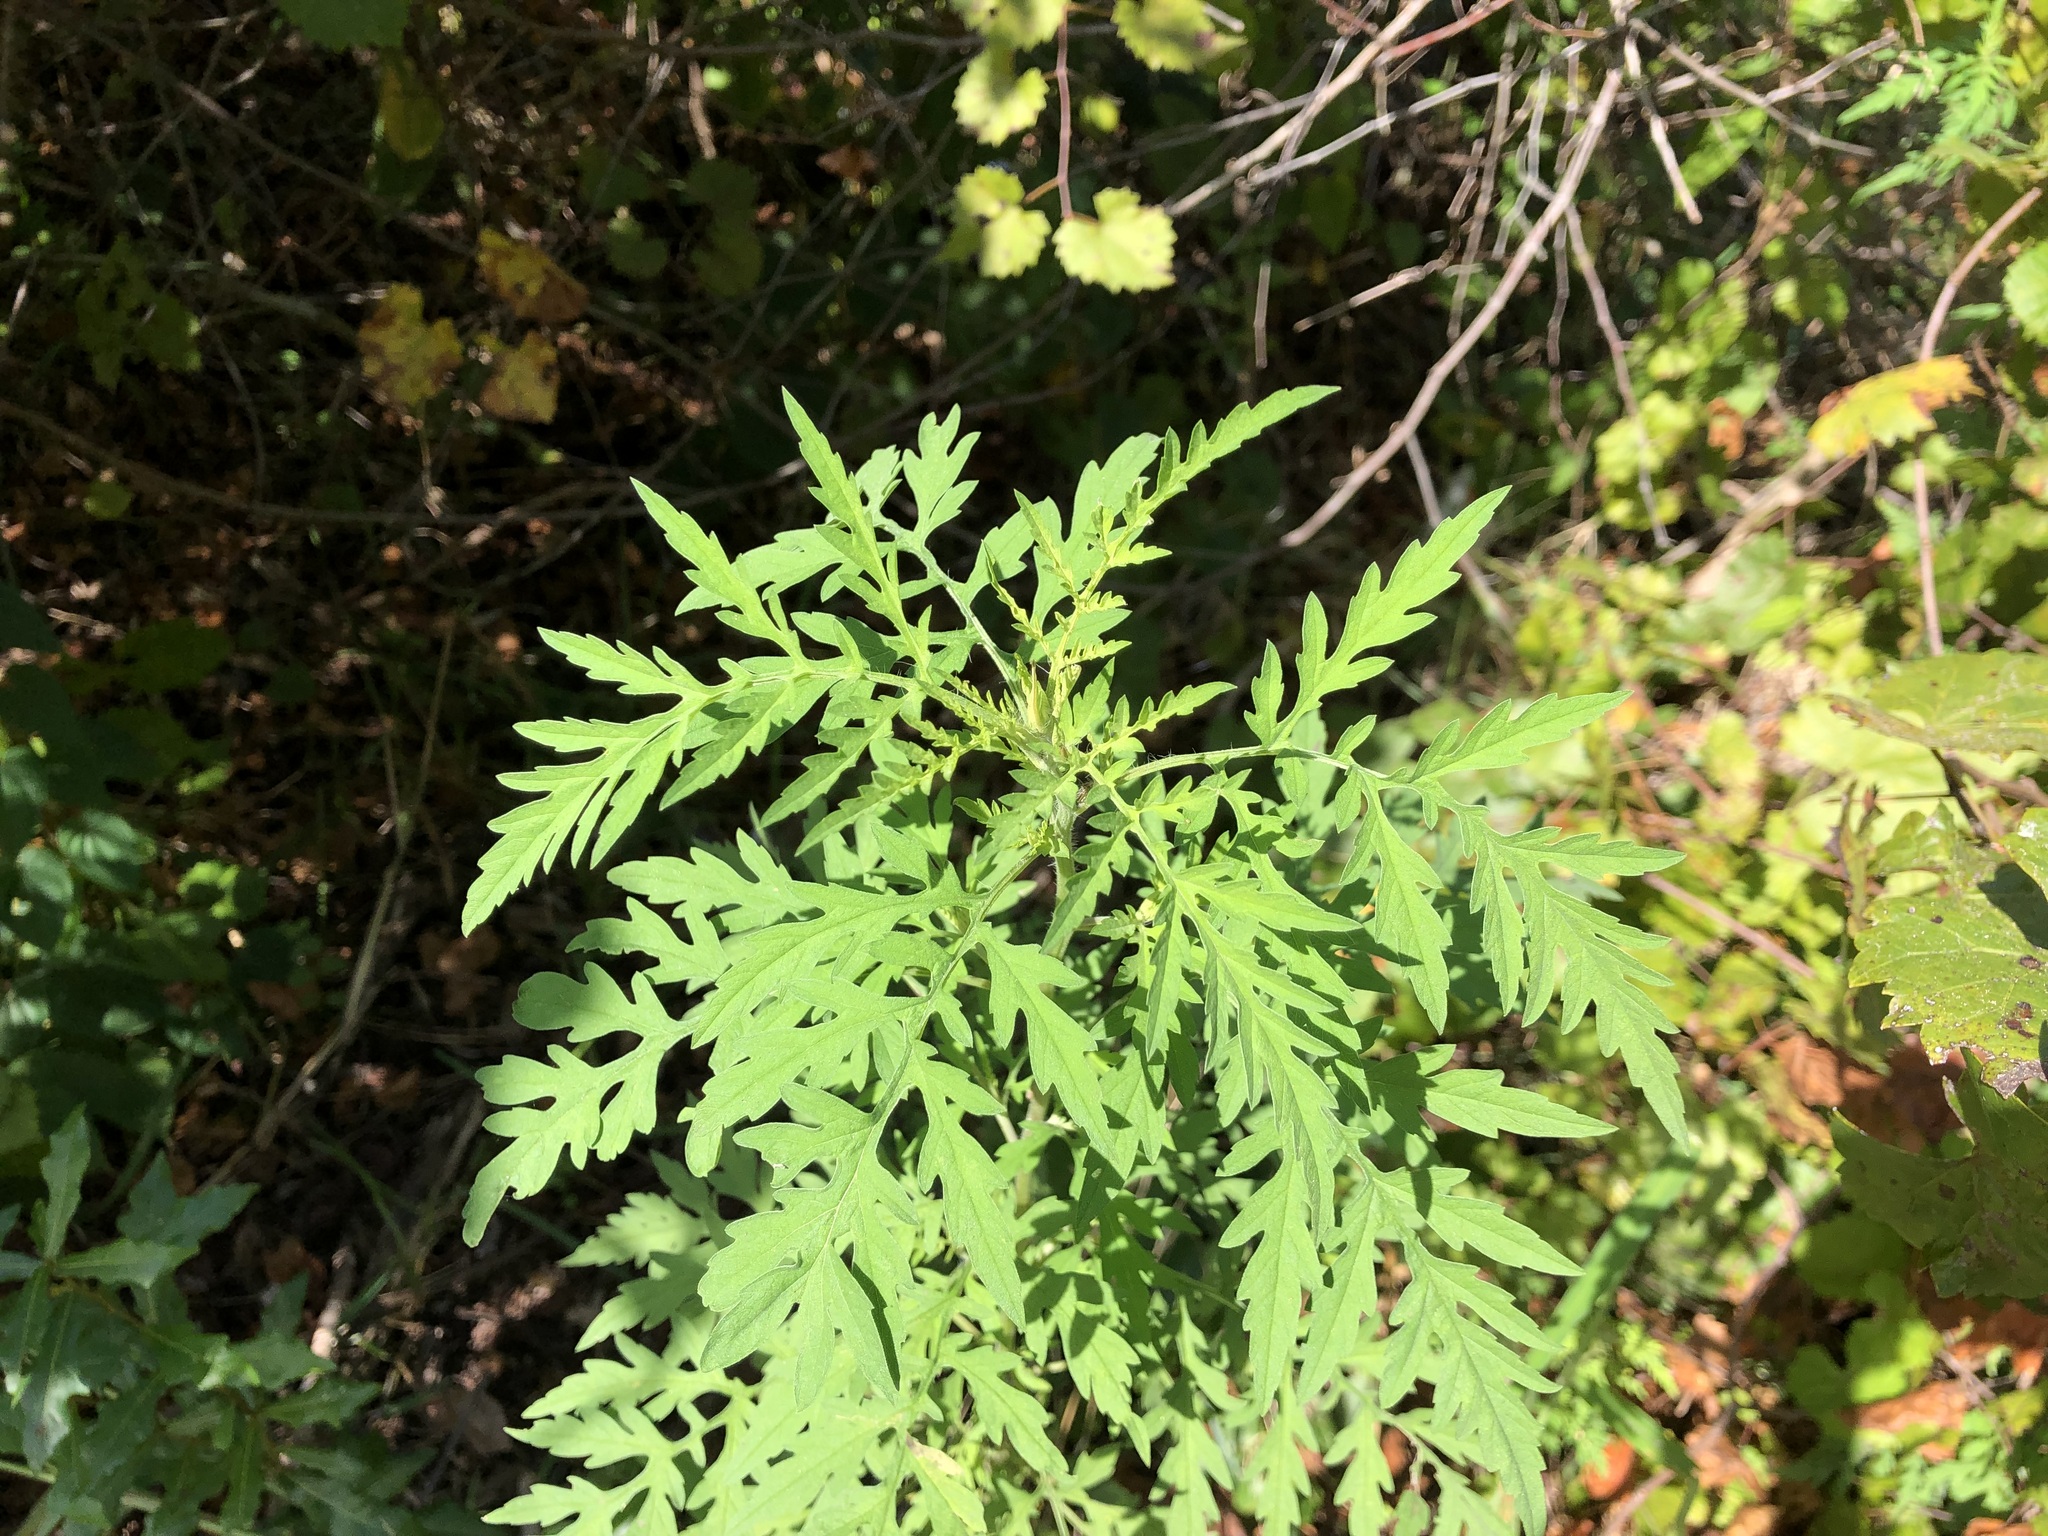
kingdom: Plantae
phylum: Tracheophyta
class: Magnoliopsida
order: Asterales
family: Asteraceae
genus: Ambrosia
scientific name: Ambrosia artemisiifolia
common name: Annual ragweed
